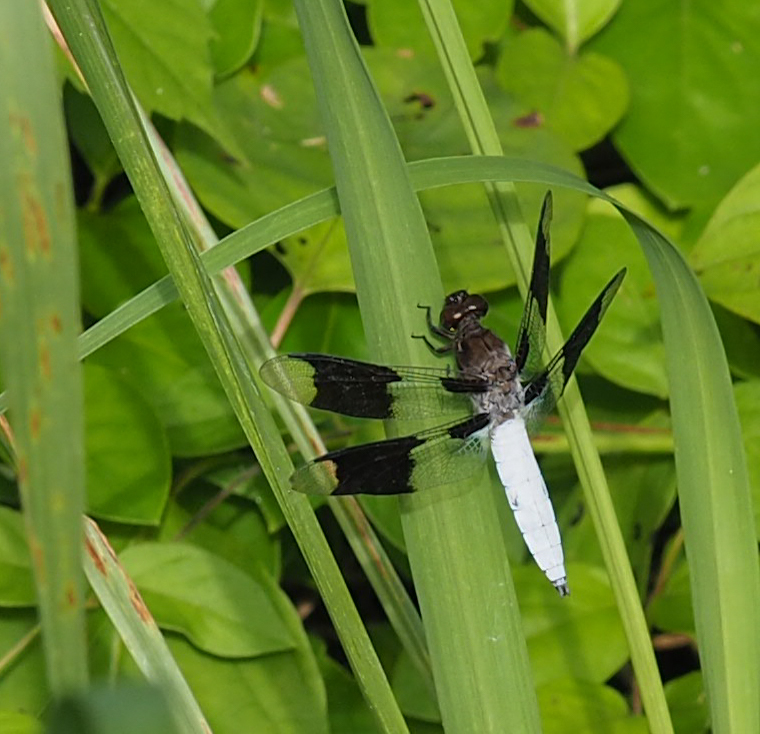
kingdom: Animalia
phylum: Arthropoda
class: Insecta
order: Odonata
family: Libellulidae
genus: Plathemis
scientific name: Plathemis lydia
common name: Common whitetail
